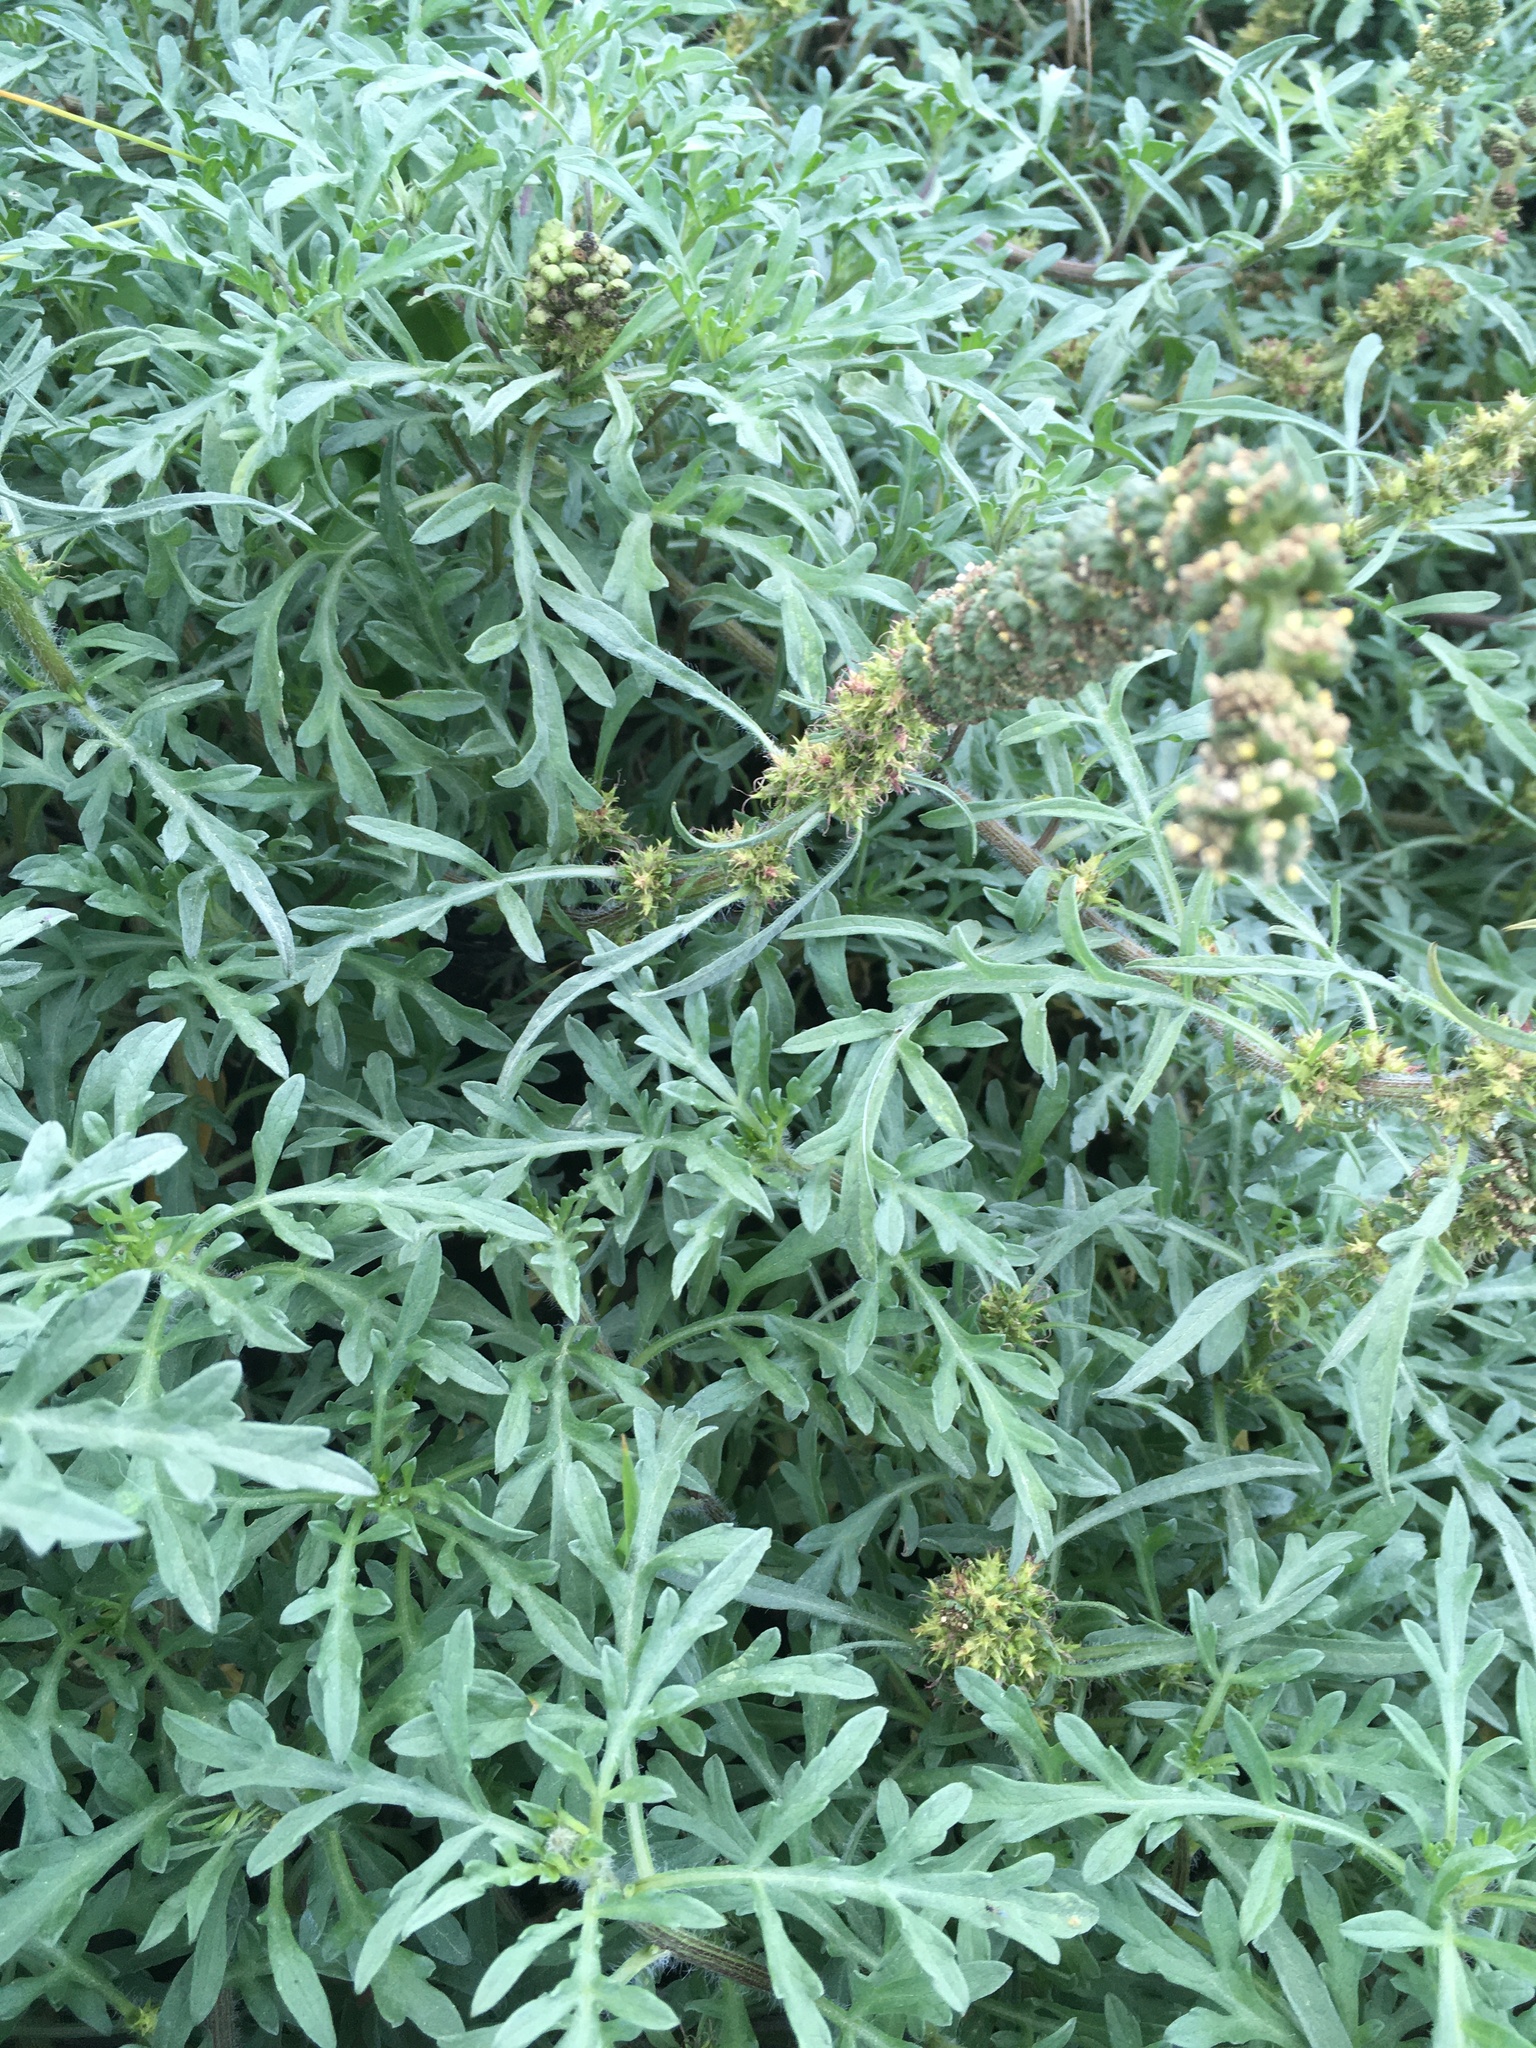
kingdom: Plantae
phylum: Tracheophyta
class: Magnoliopsida
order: Asterales
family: Asteraceae
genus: Ambrosia
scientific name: Ambrosia chamissonis
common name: Beachbur
